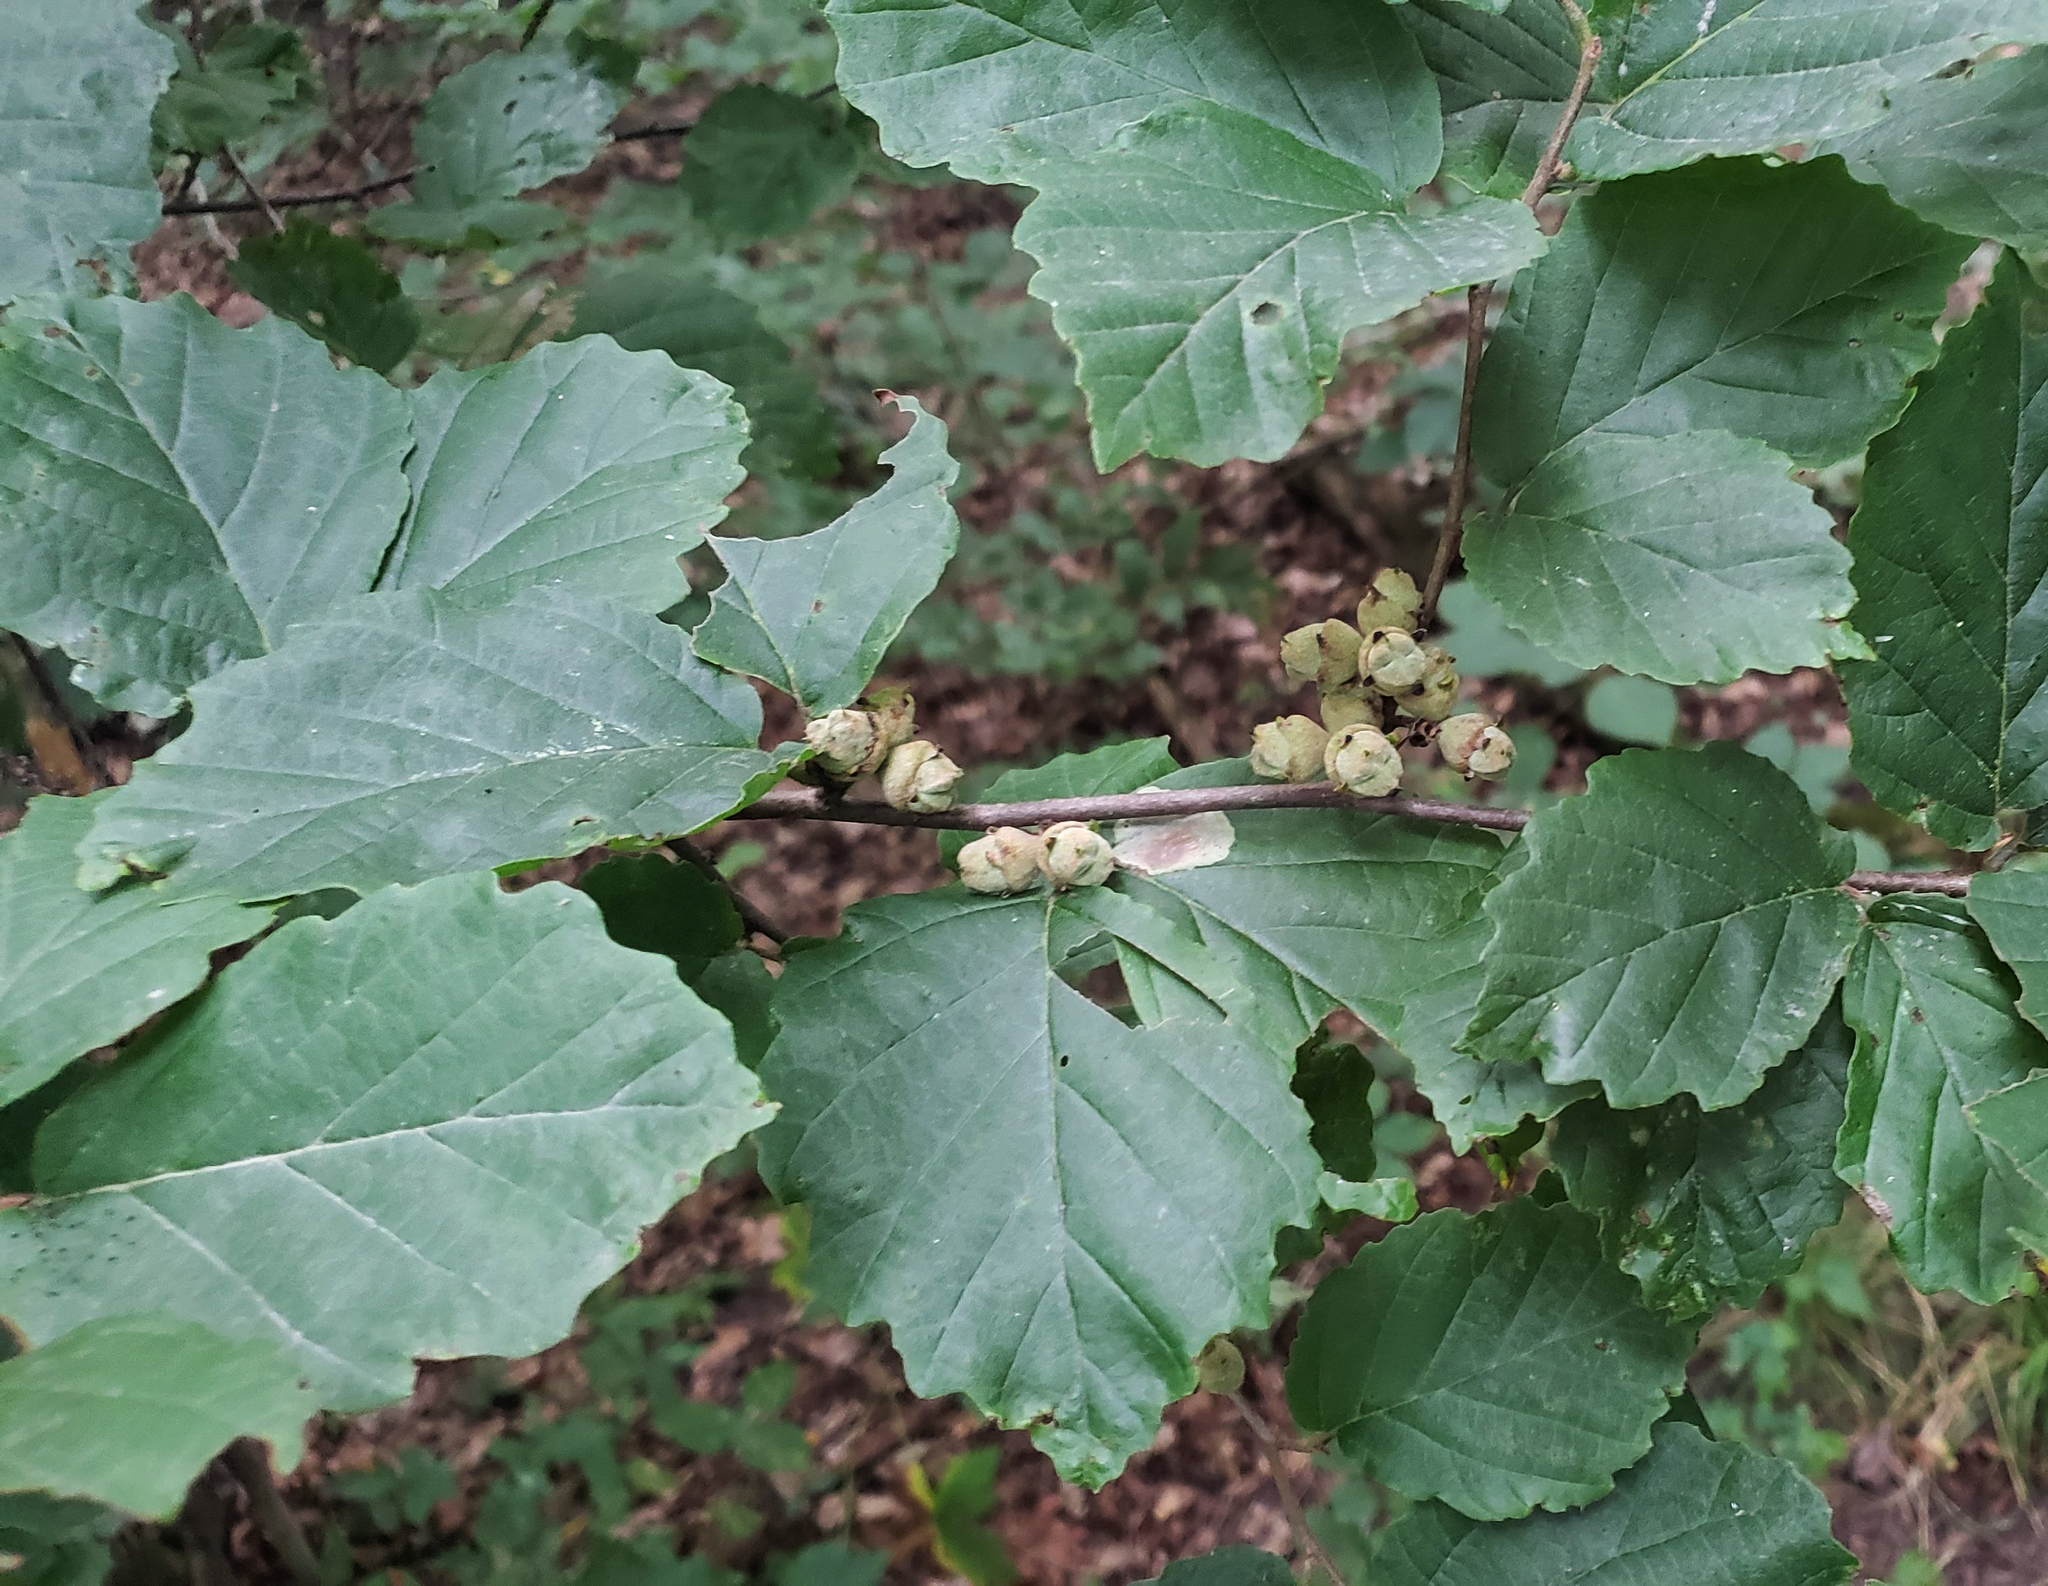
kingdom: Plantae
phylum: Tracheophyta
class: Magnoliopsida
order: Saxifragales
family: Hamamelidaceae
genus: Hamamelis
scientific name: Hamamelis virginiana
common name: Witch-hazel
